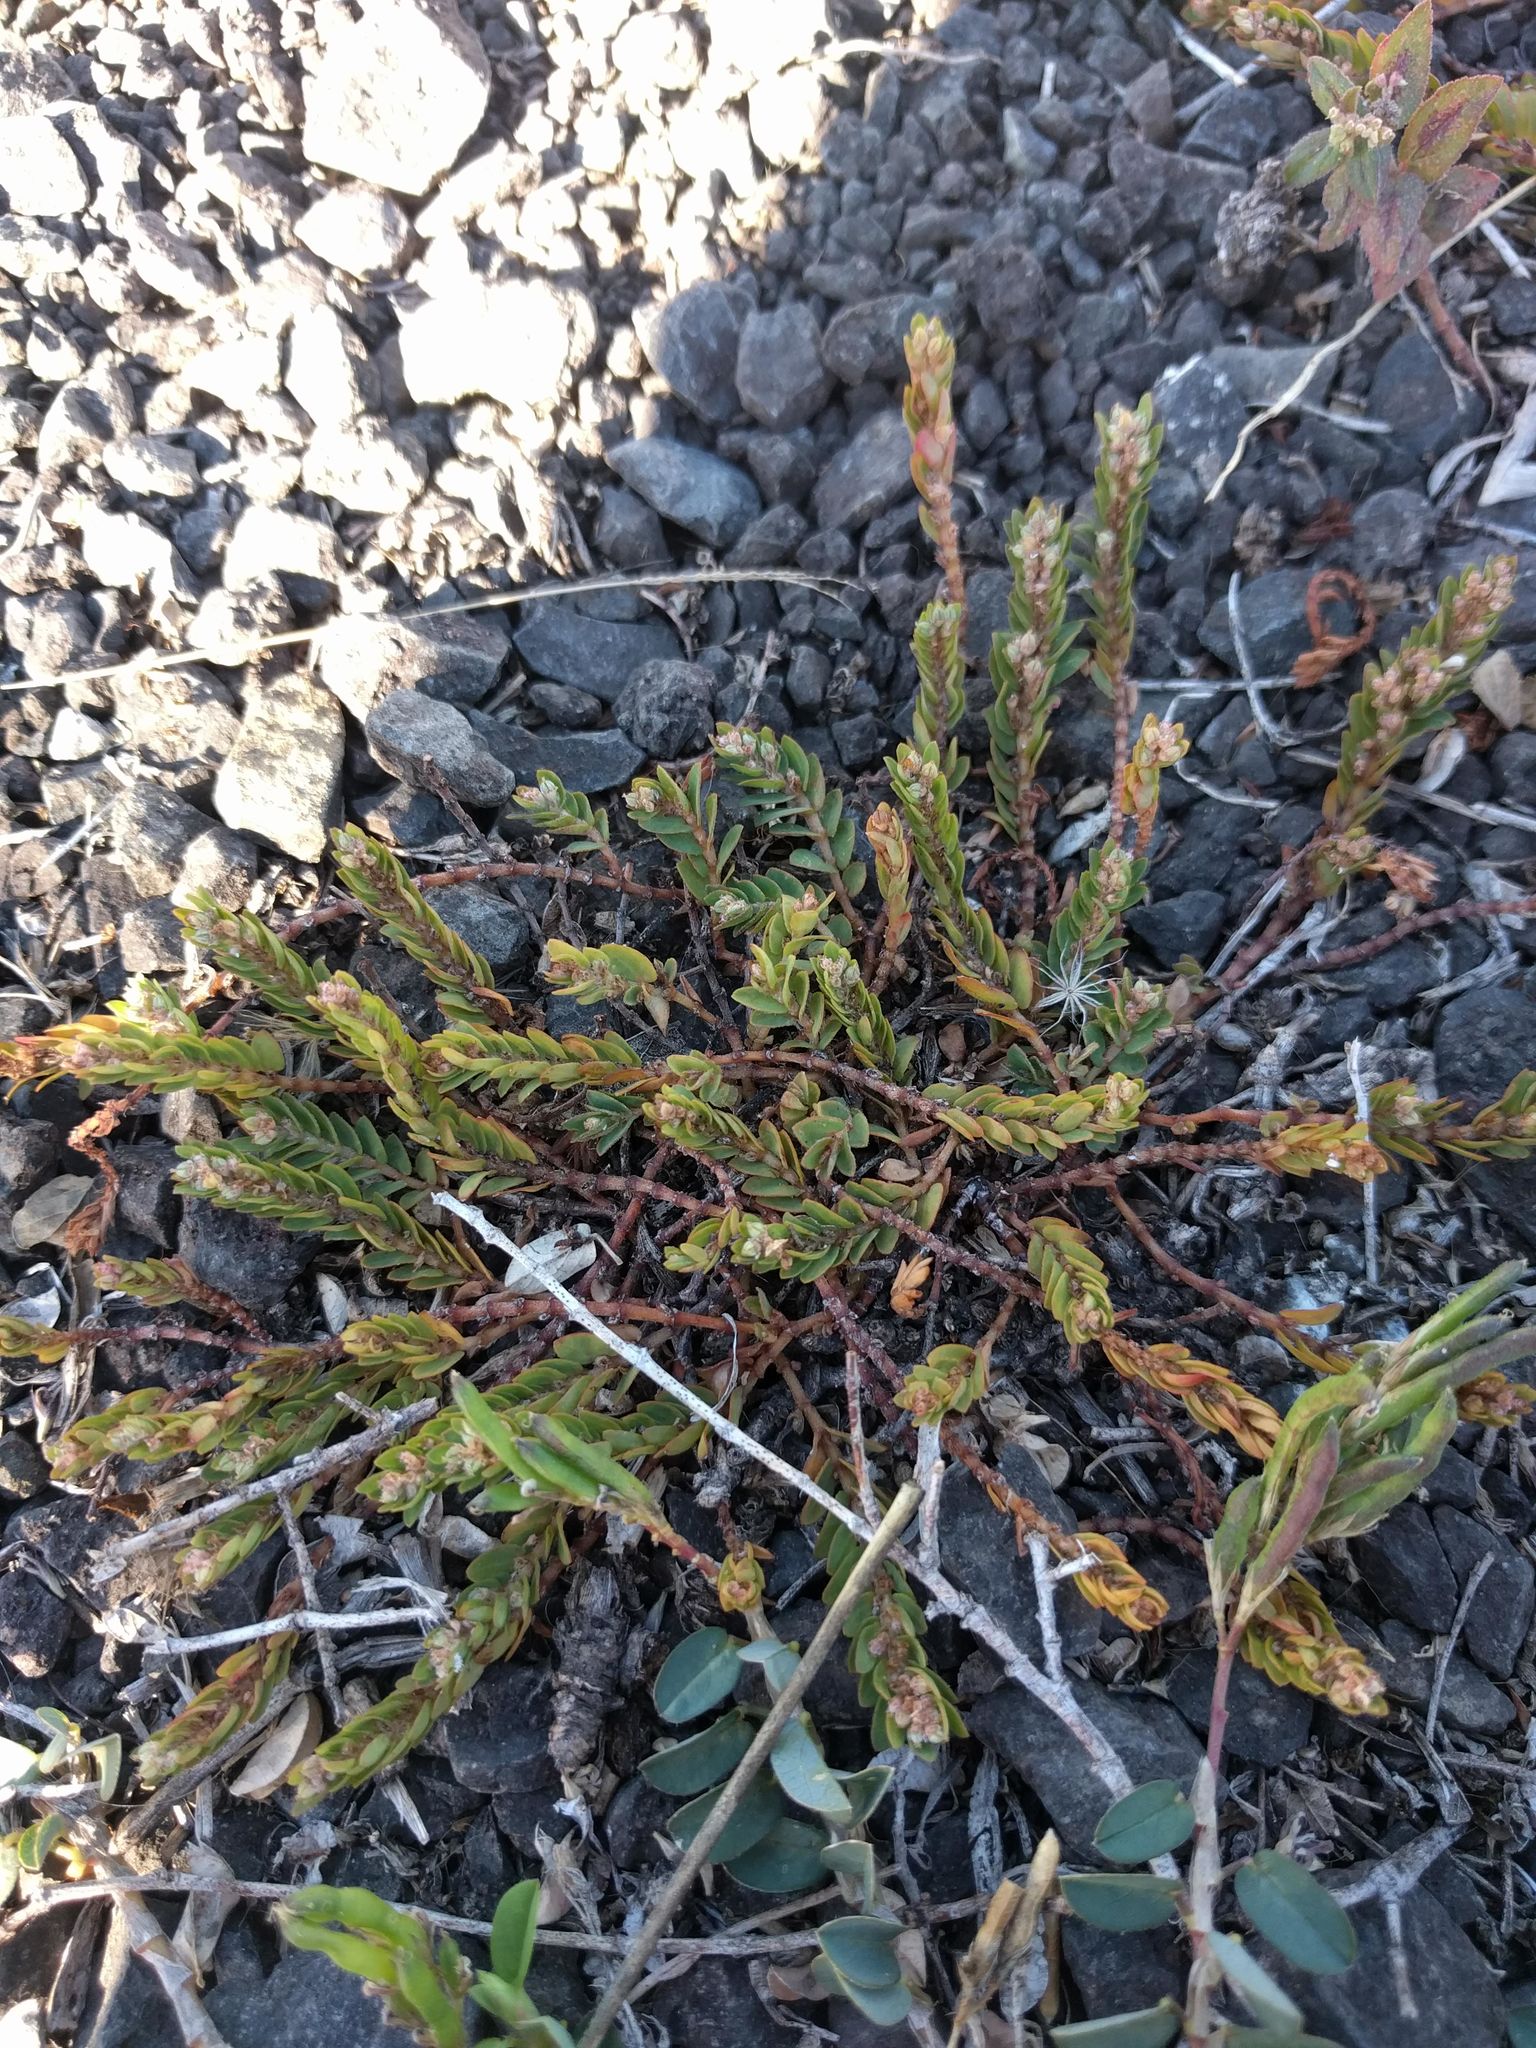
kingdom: Plantae
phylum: Tracheophyta
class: Magnoliopsida
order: Malpighiales
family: Euphorbiaceae
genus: Euphorbia
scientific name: Euphorbia thymifolia
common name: Gulf sandmat
